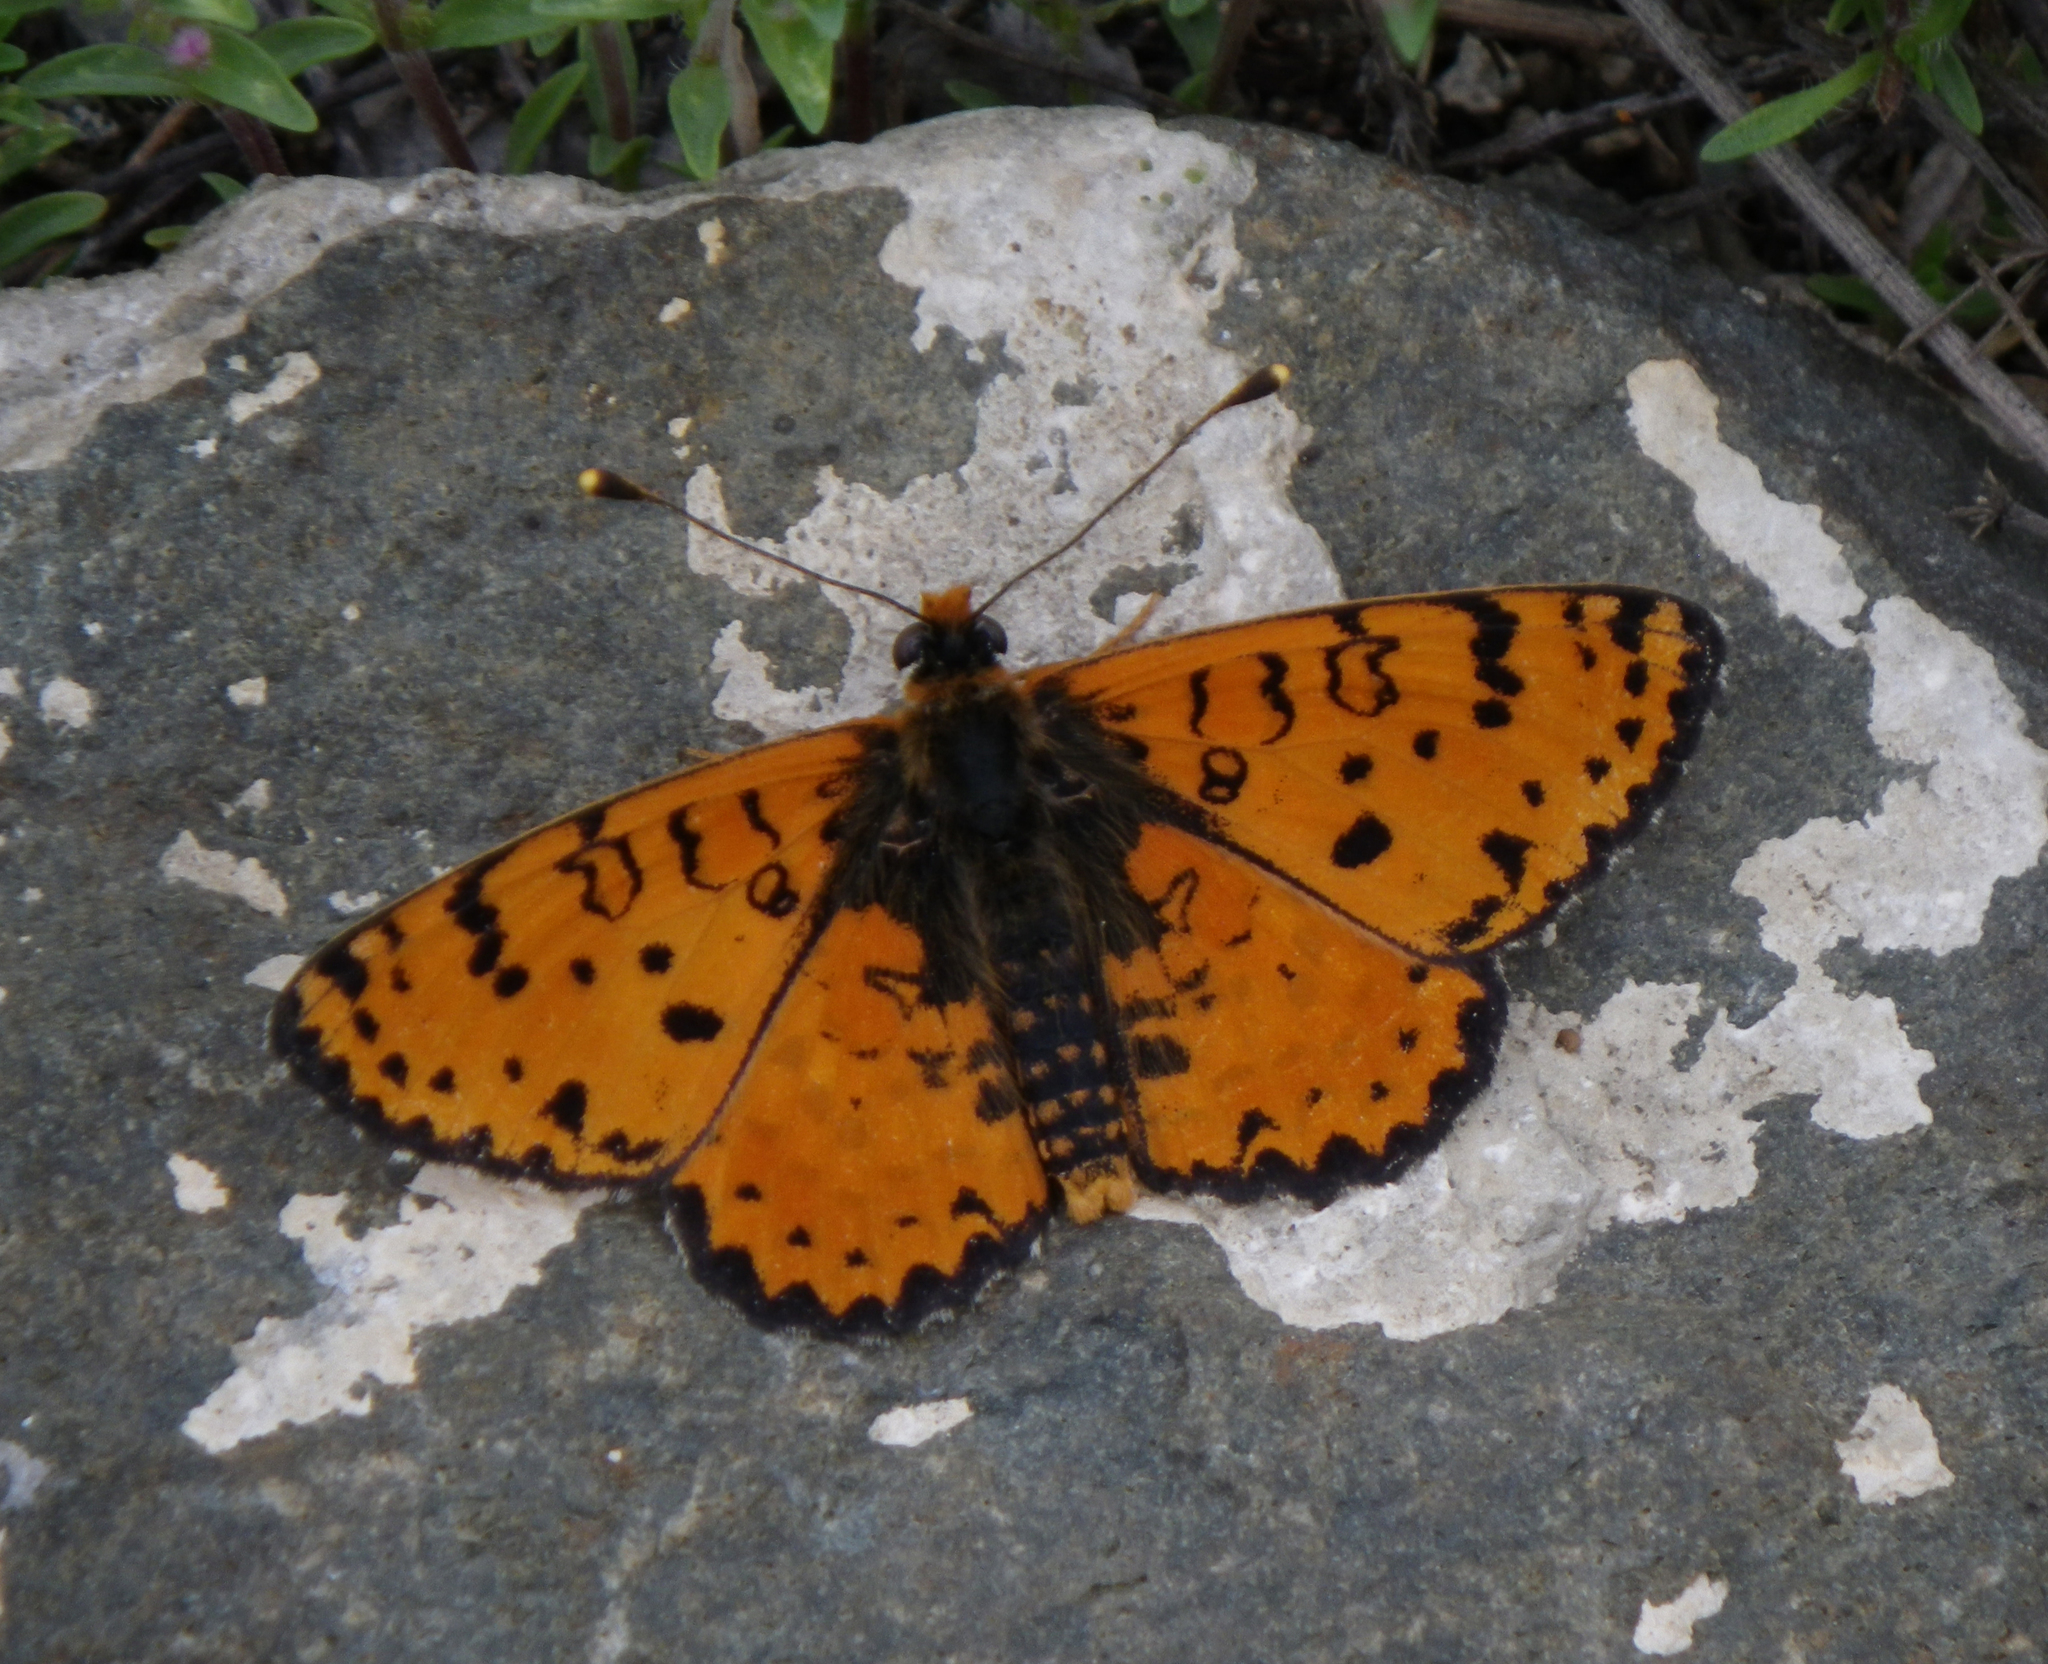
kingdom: Animalia
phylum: Arthropoda
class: Insecta
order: Lepidoptera
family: Nymphalidae
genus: Melitaea
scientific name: Melitaea didyma
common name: Spotted fritillary
